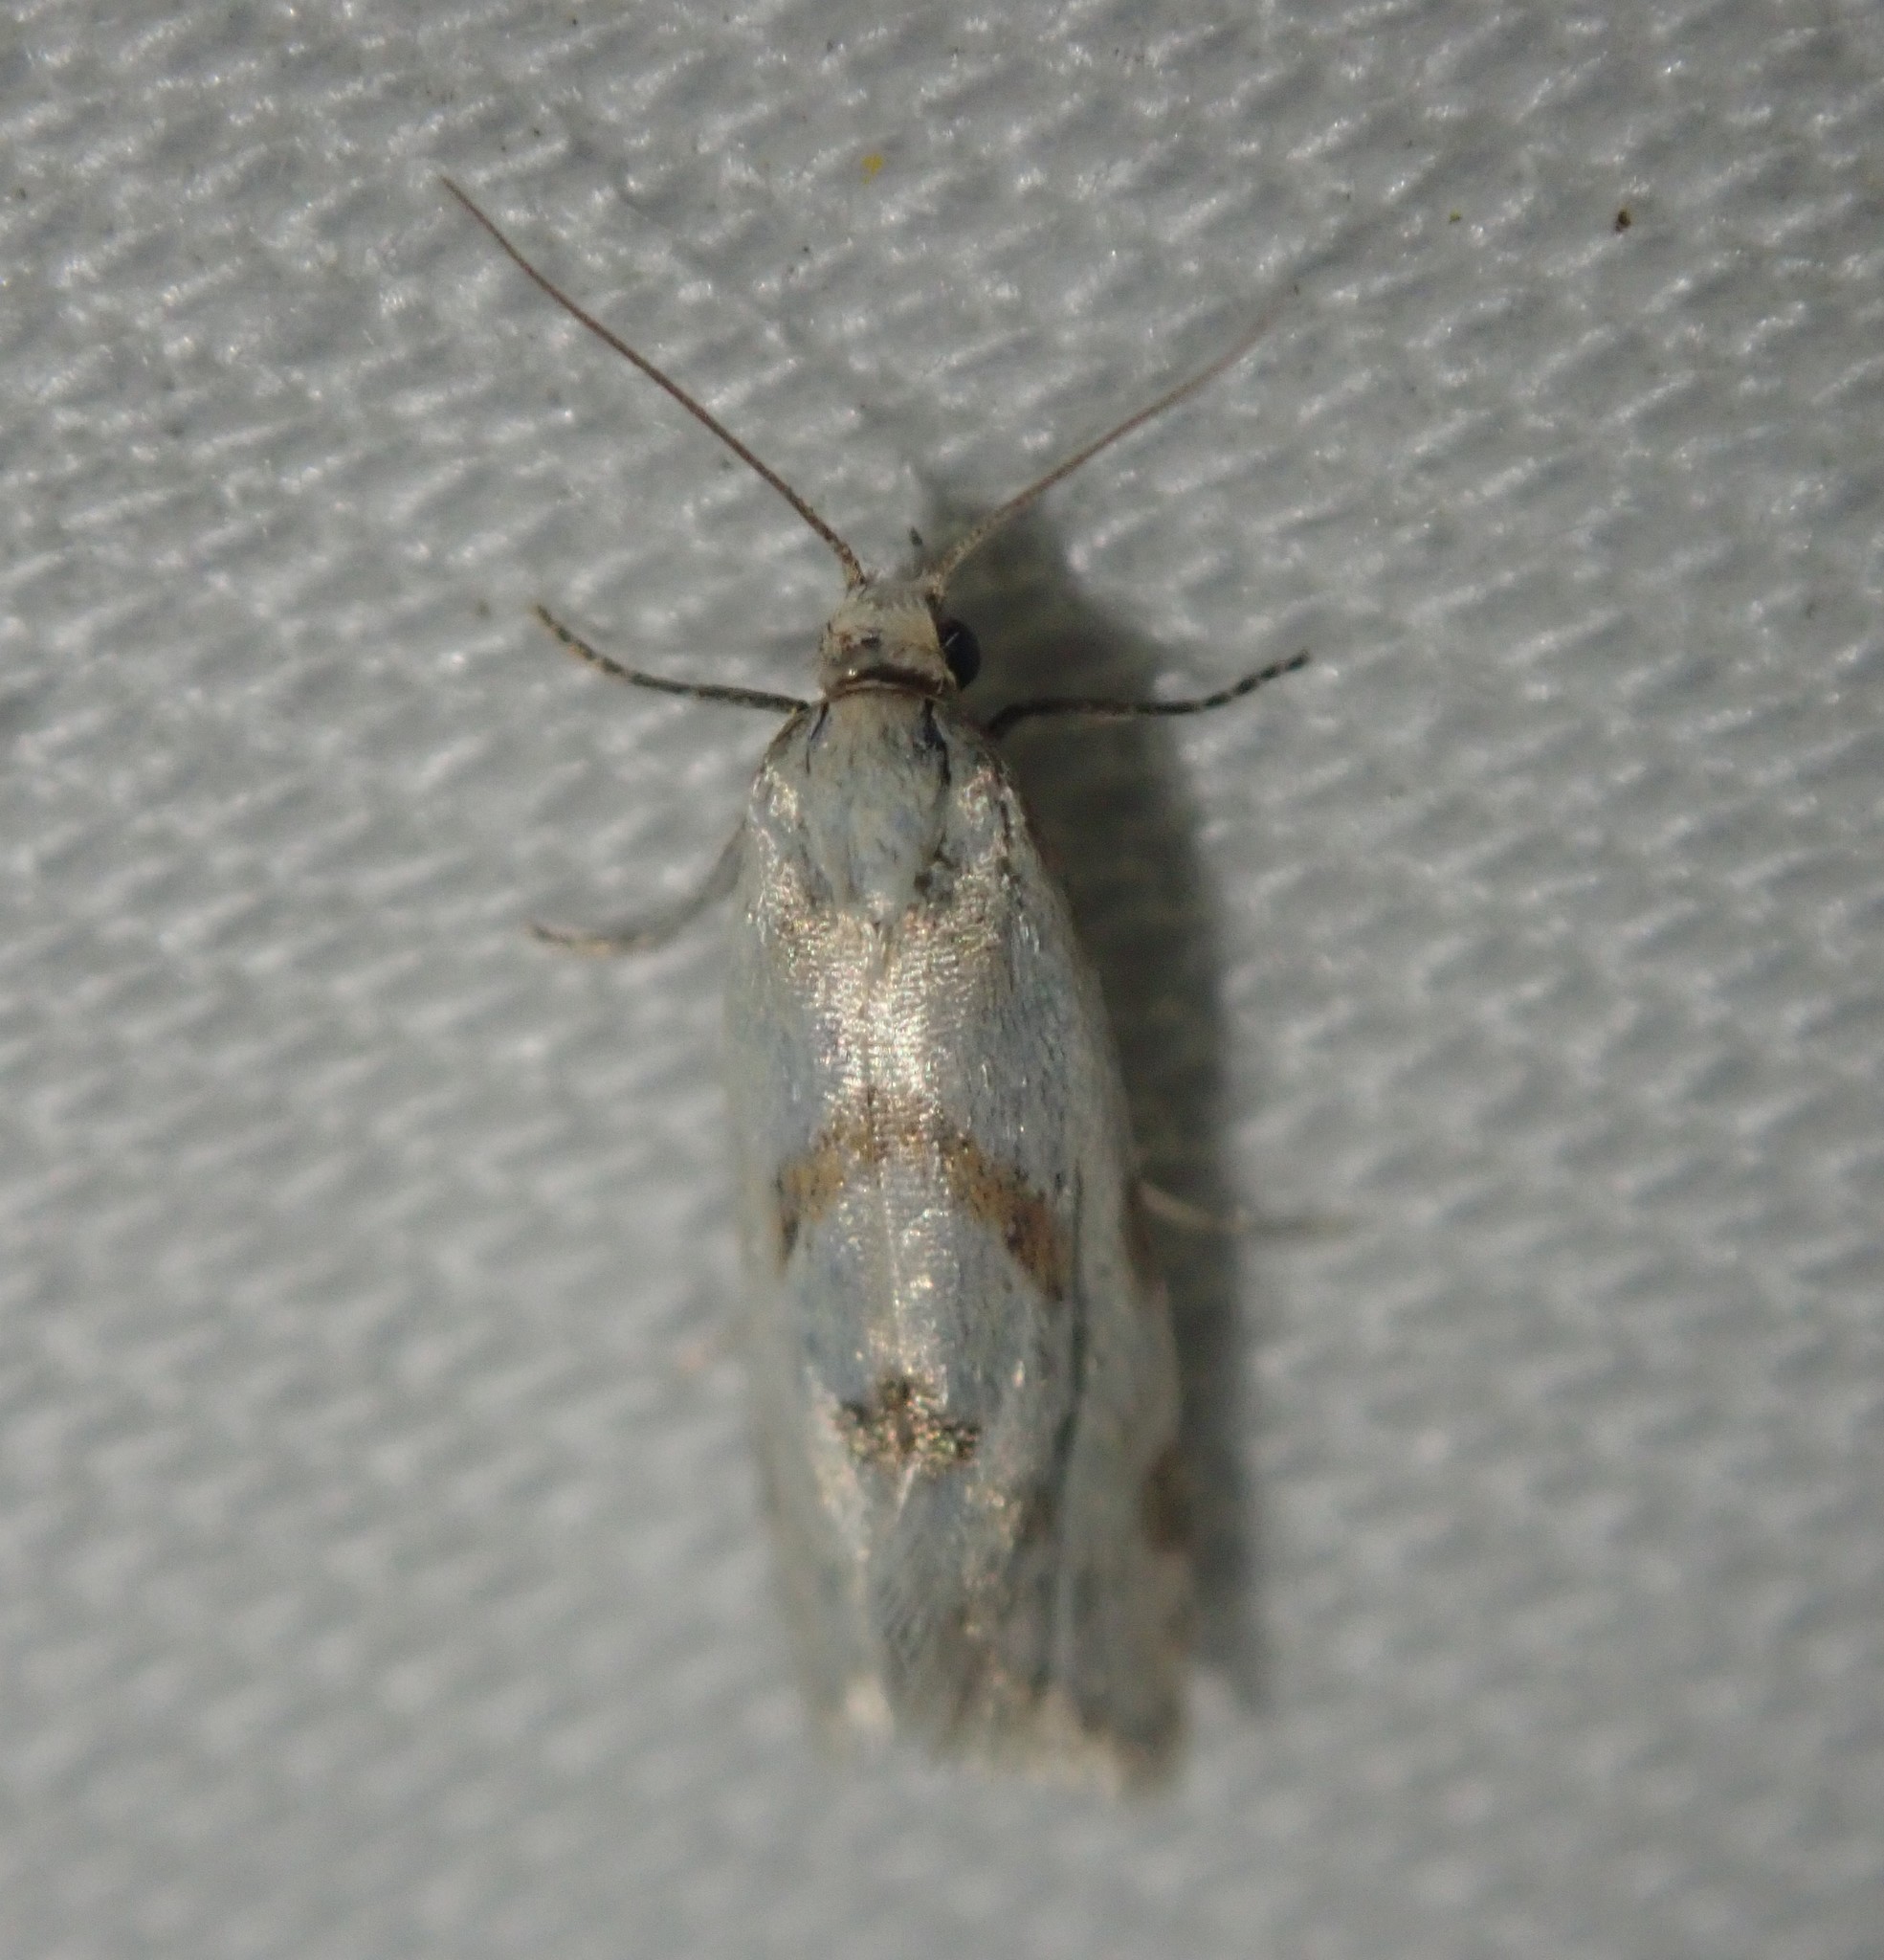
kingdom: Animalia
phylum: Arthropoda
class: Insecta
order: Lepidoptera
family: Tortricidae
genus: Aethes
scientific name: Aethes smeathmanniana
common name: Yarrow conch
